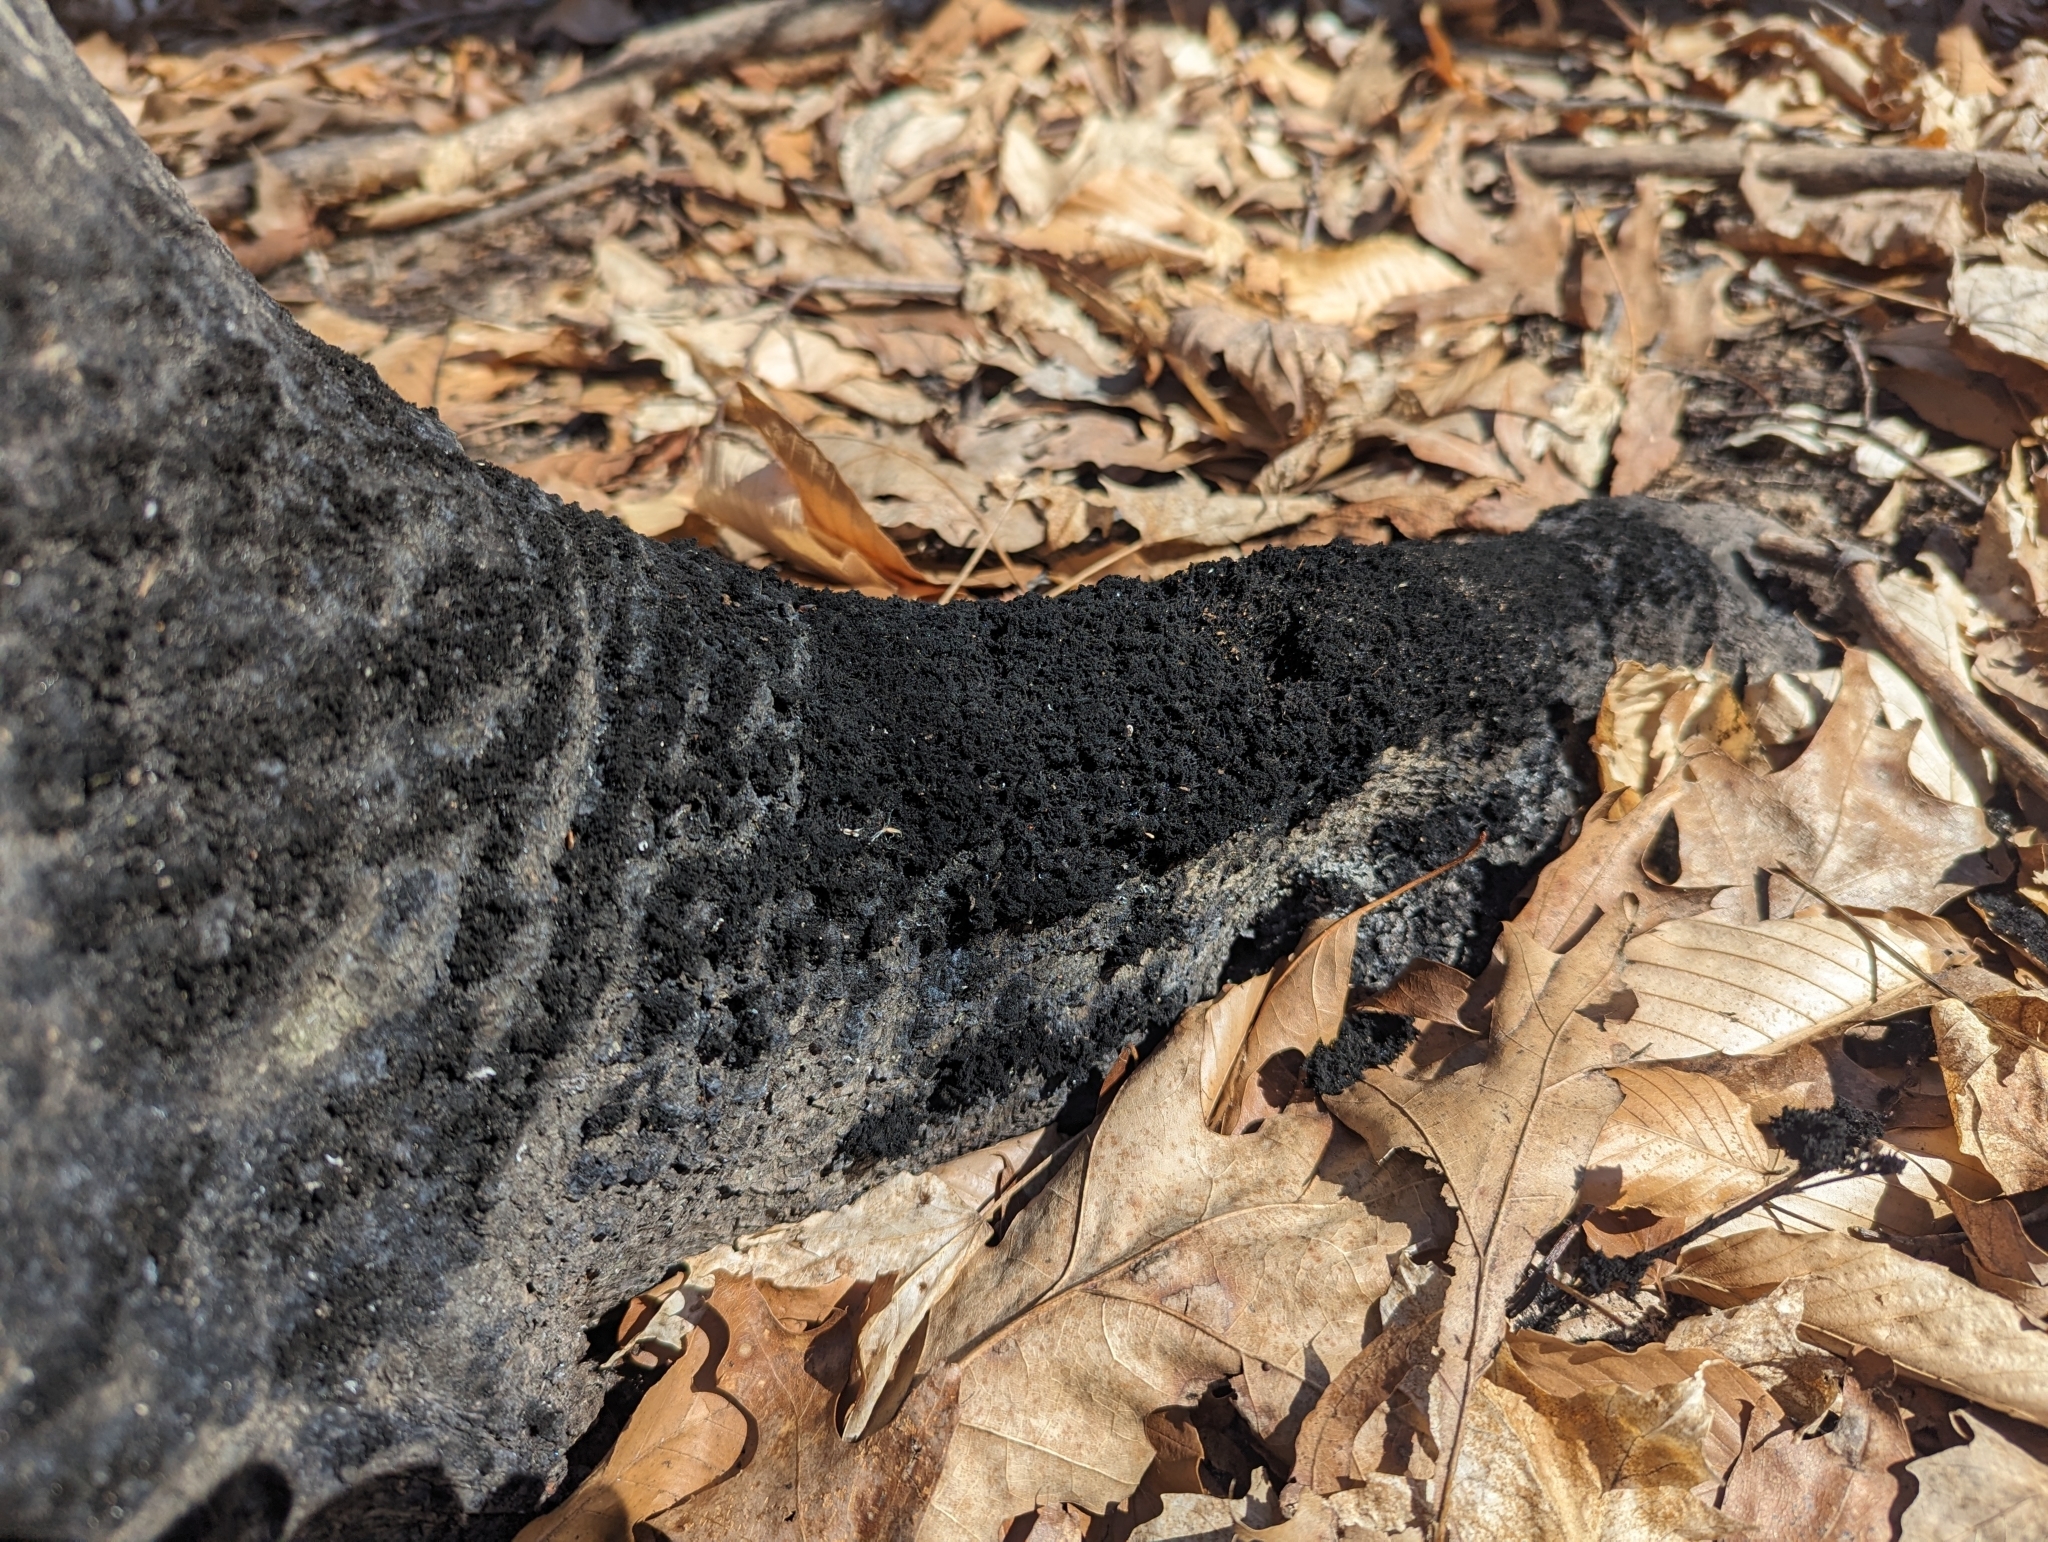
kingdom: Fungi
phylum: Ascomycota
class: Dothideomycetes
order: Capnodiales
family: Capnodiaceae
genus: Scorias
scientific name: Scorias spongiosa
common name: Black sooty mold
